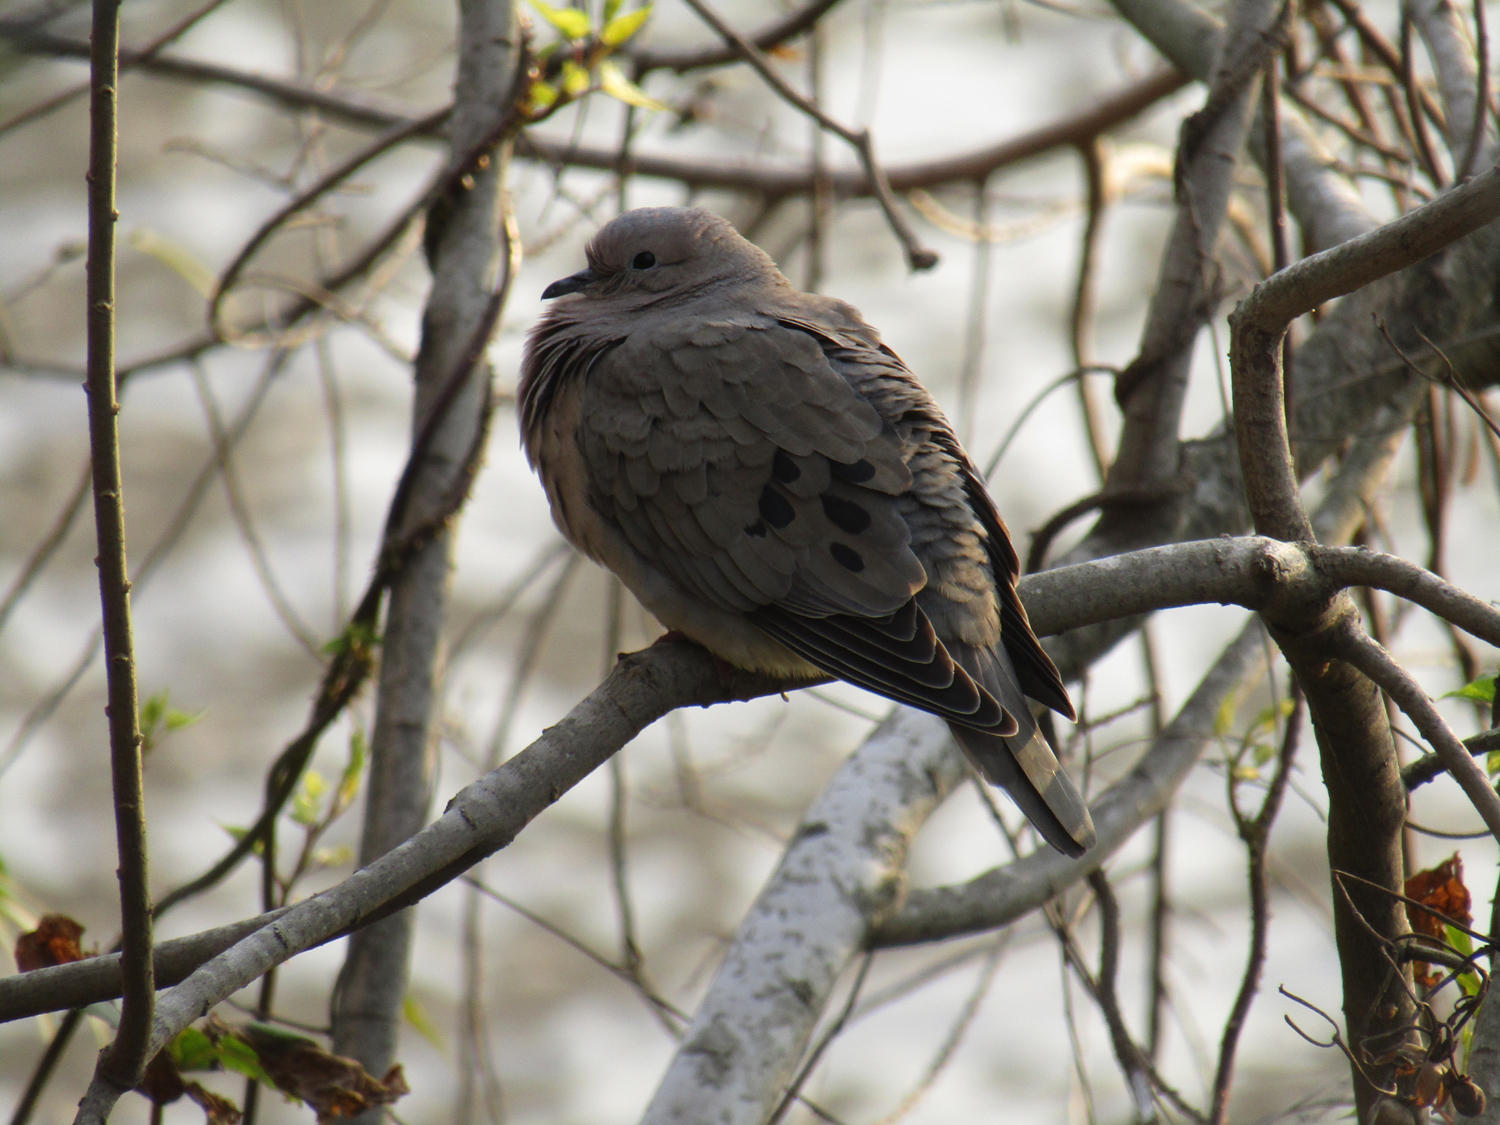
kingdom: Animalia
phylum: Chordata
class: Aves
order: Columbiformes
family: Columbidae
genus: Zenaida
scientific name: Zenaida auriculata
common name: Eared dove
